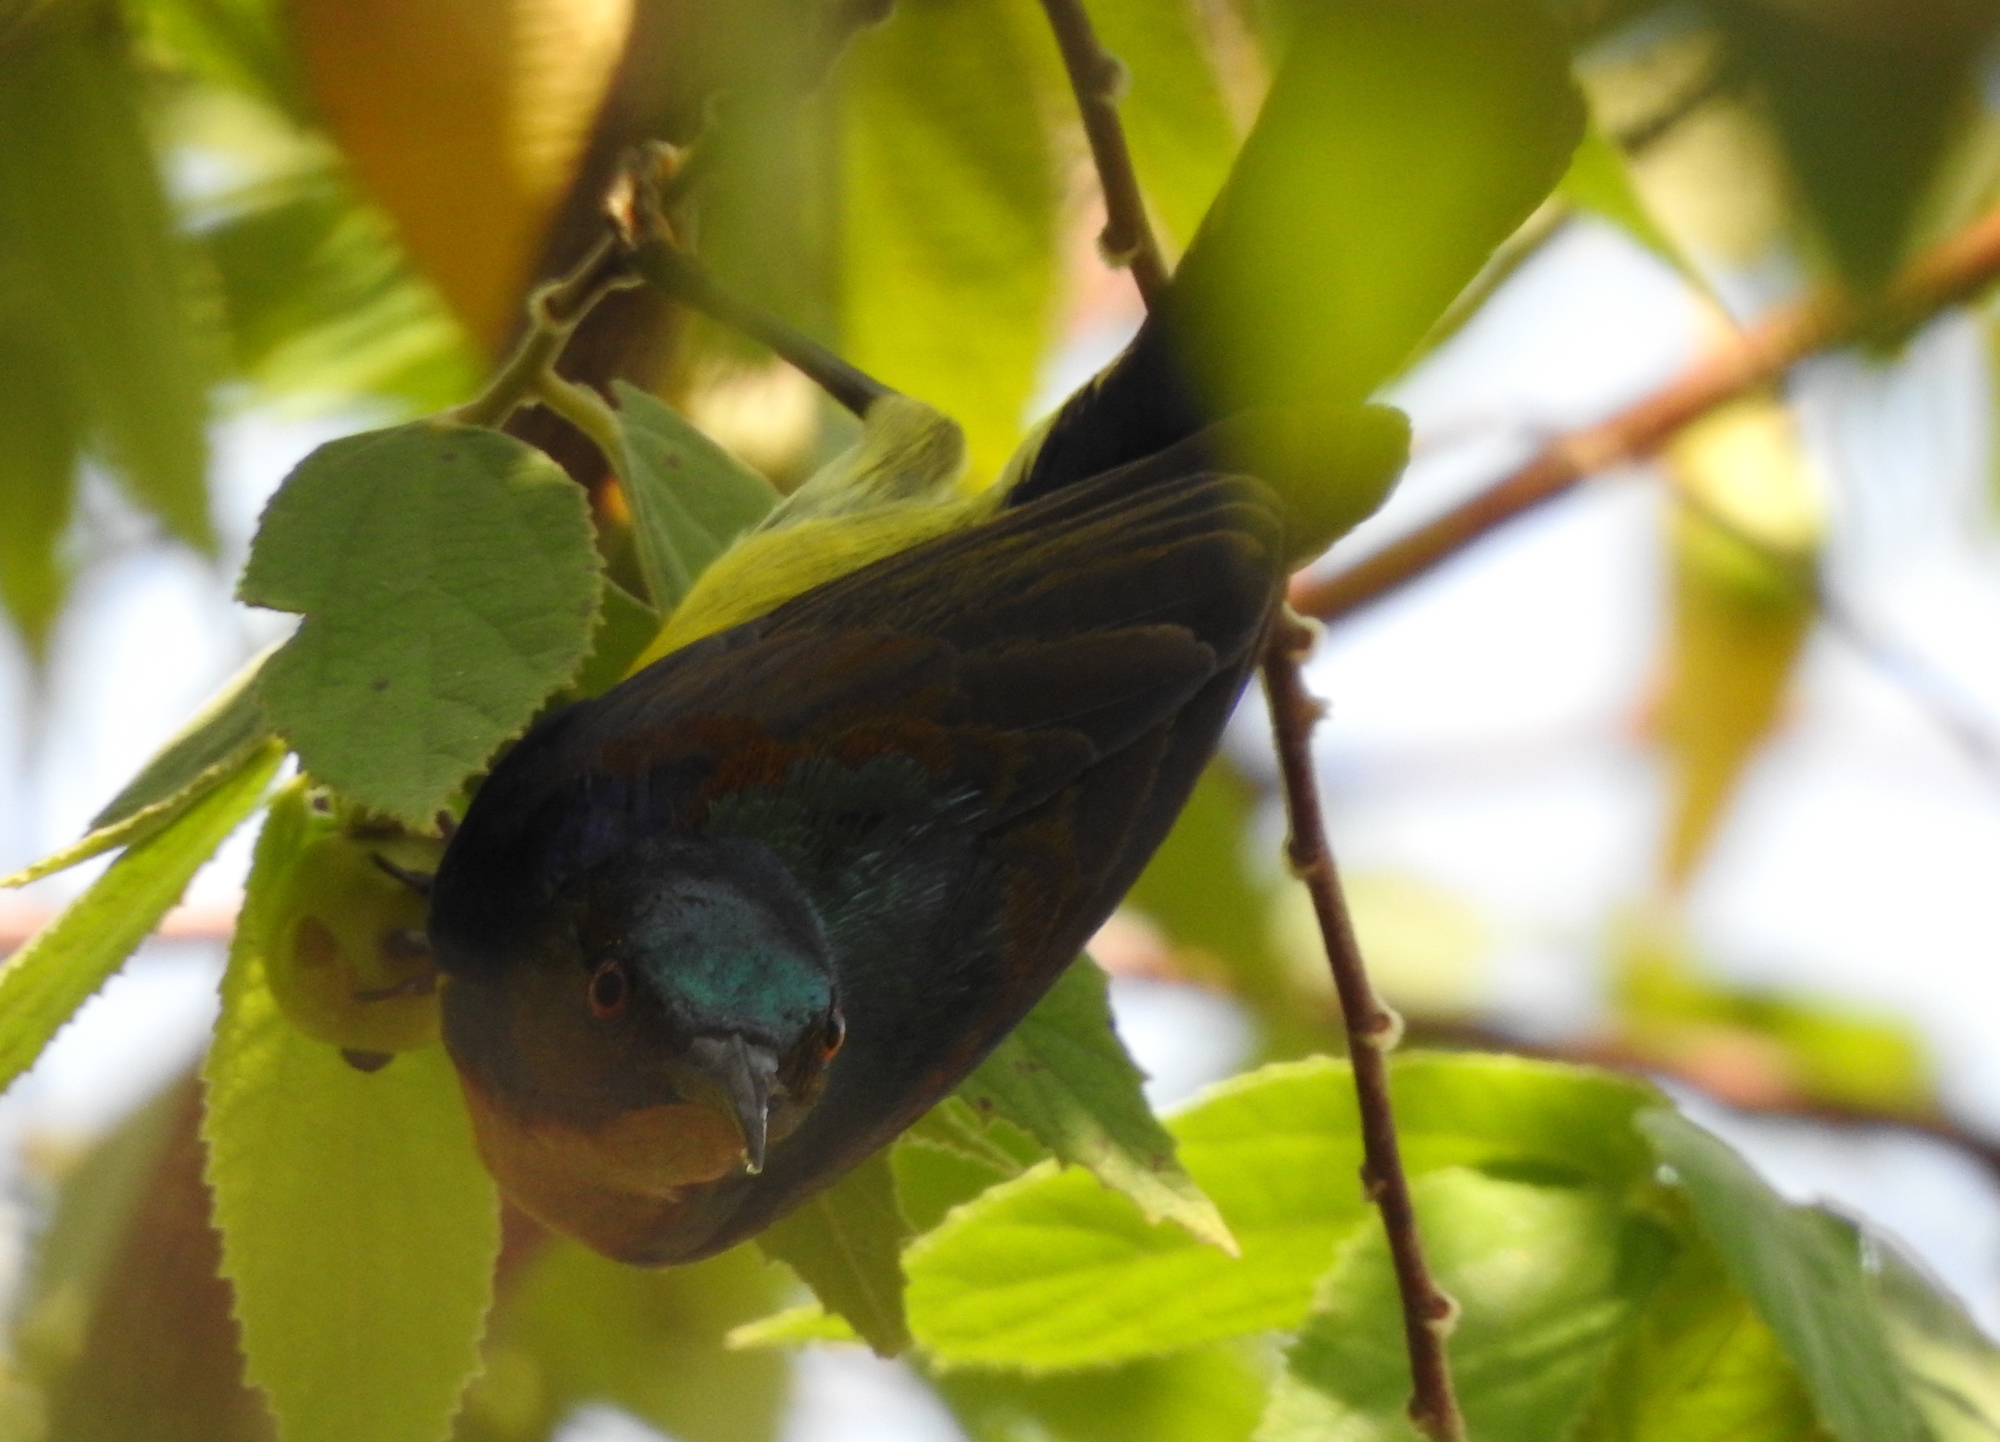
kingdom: Animalia
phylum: Chordata
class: Aves
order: Passeriformes
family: Nectariniidae
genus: Anthreptes
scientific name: Anthreptes malacensis
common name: Brown-throated sunbird
